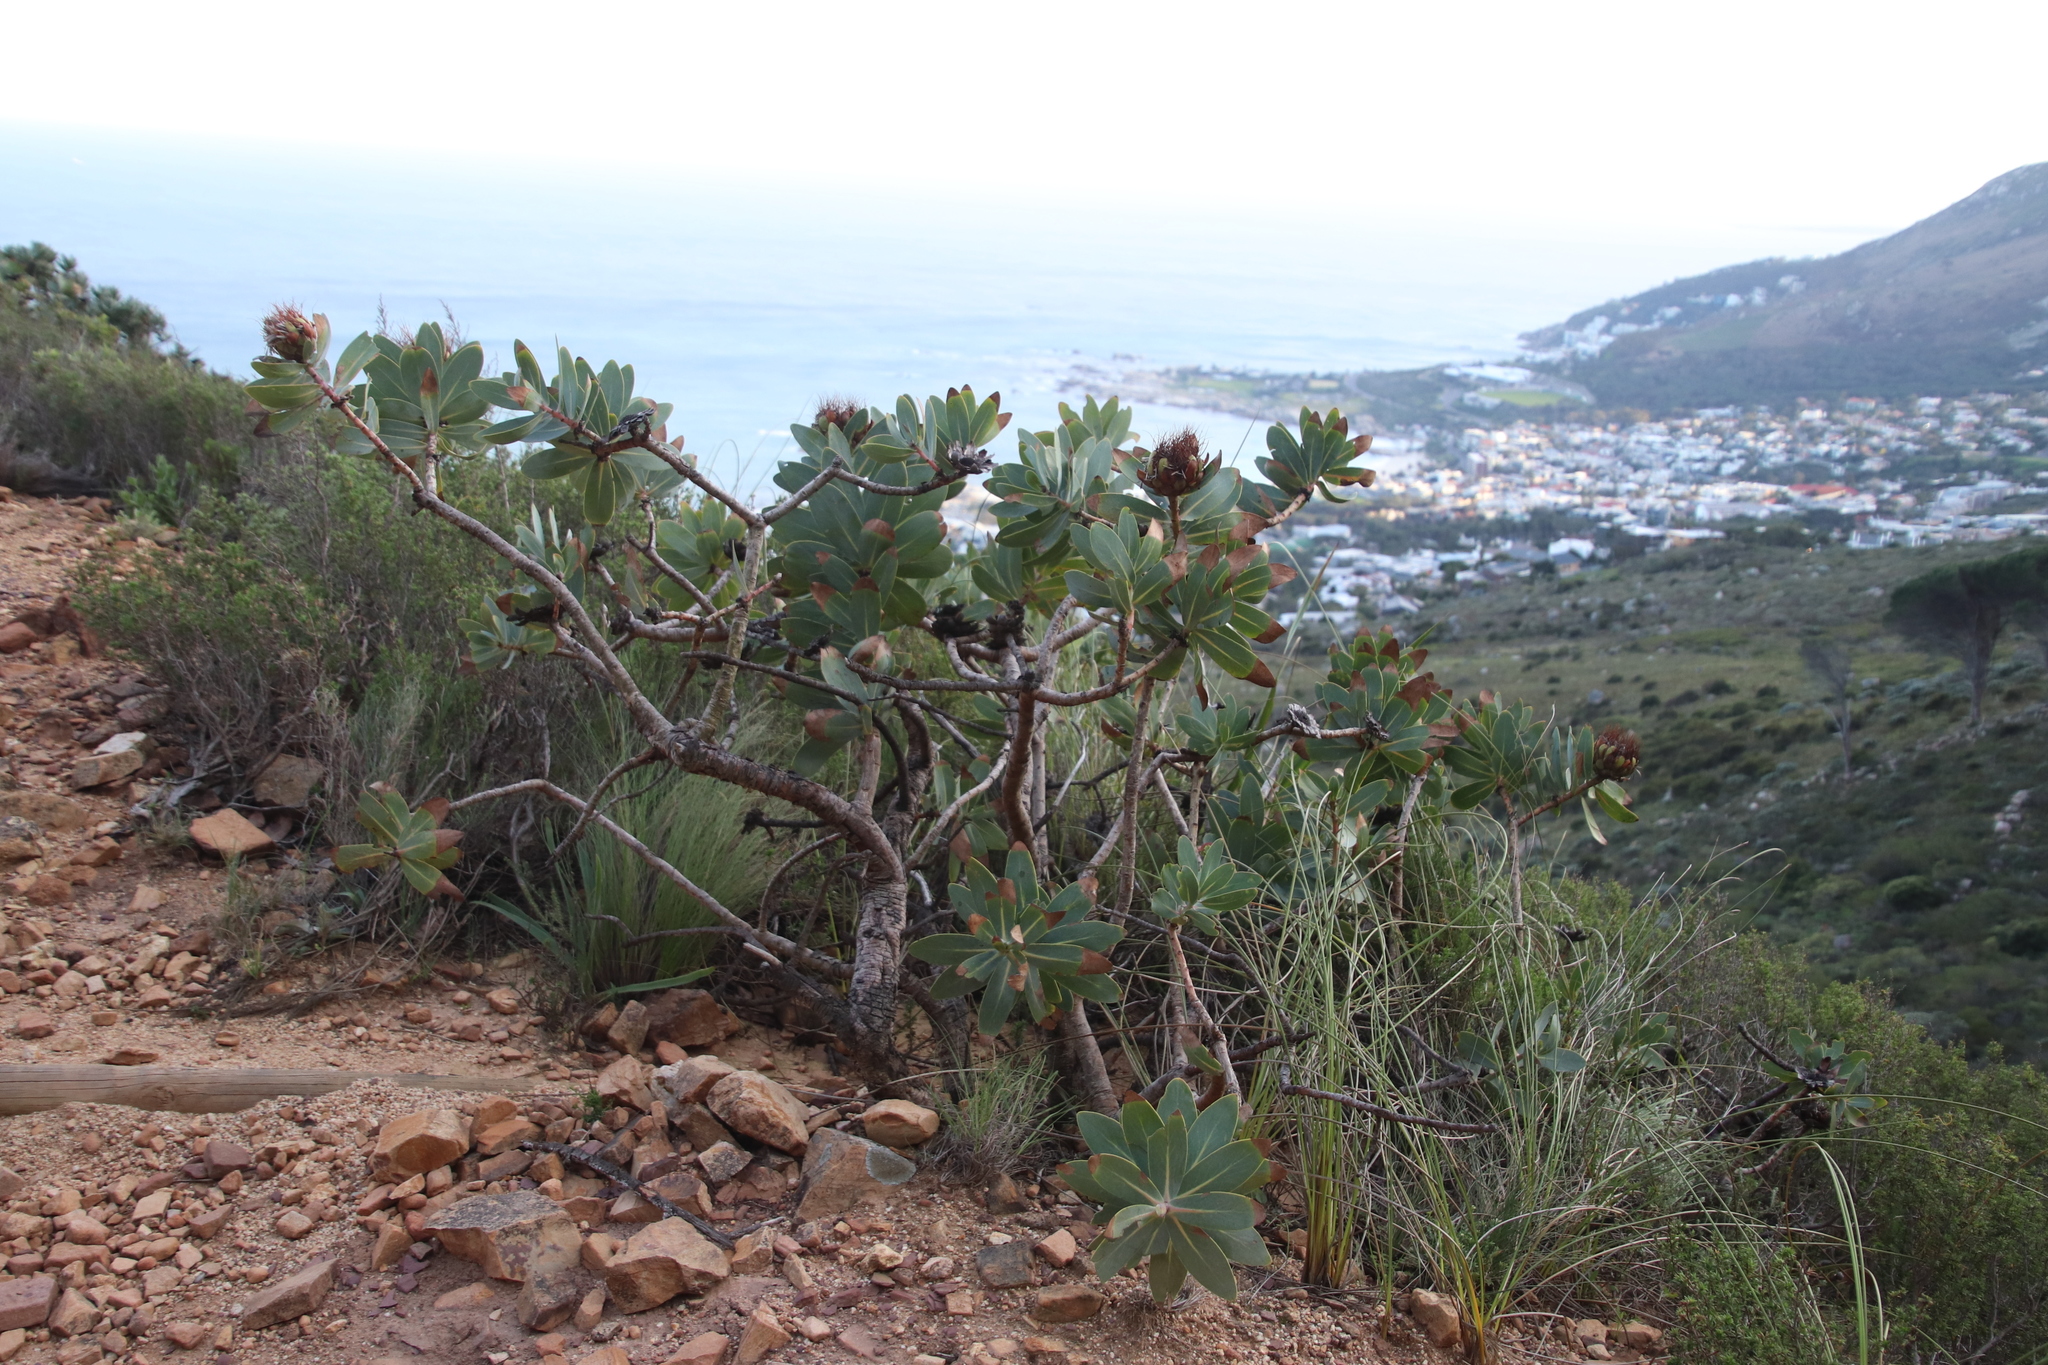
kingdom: Plantae
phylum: Tracheophyta
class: Magnoliopsida
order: Proteales
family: Proteaceae
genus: Protea
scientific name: Protea nitida
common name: Tree protea
